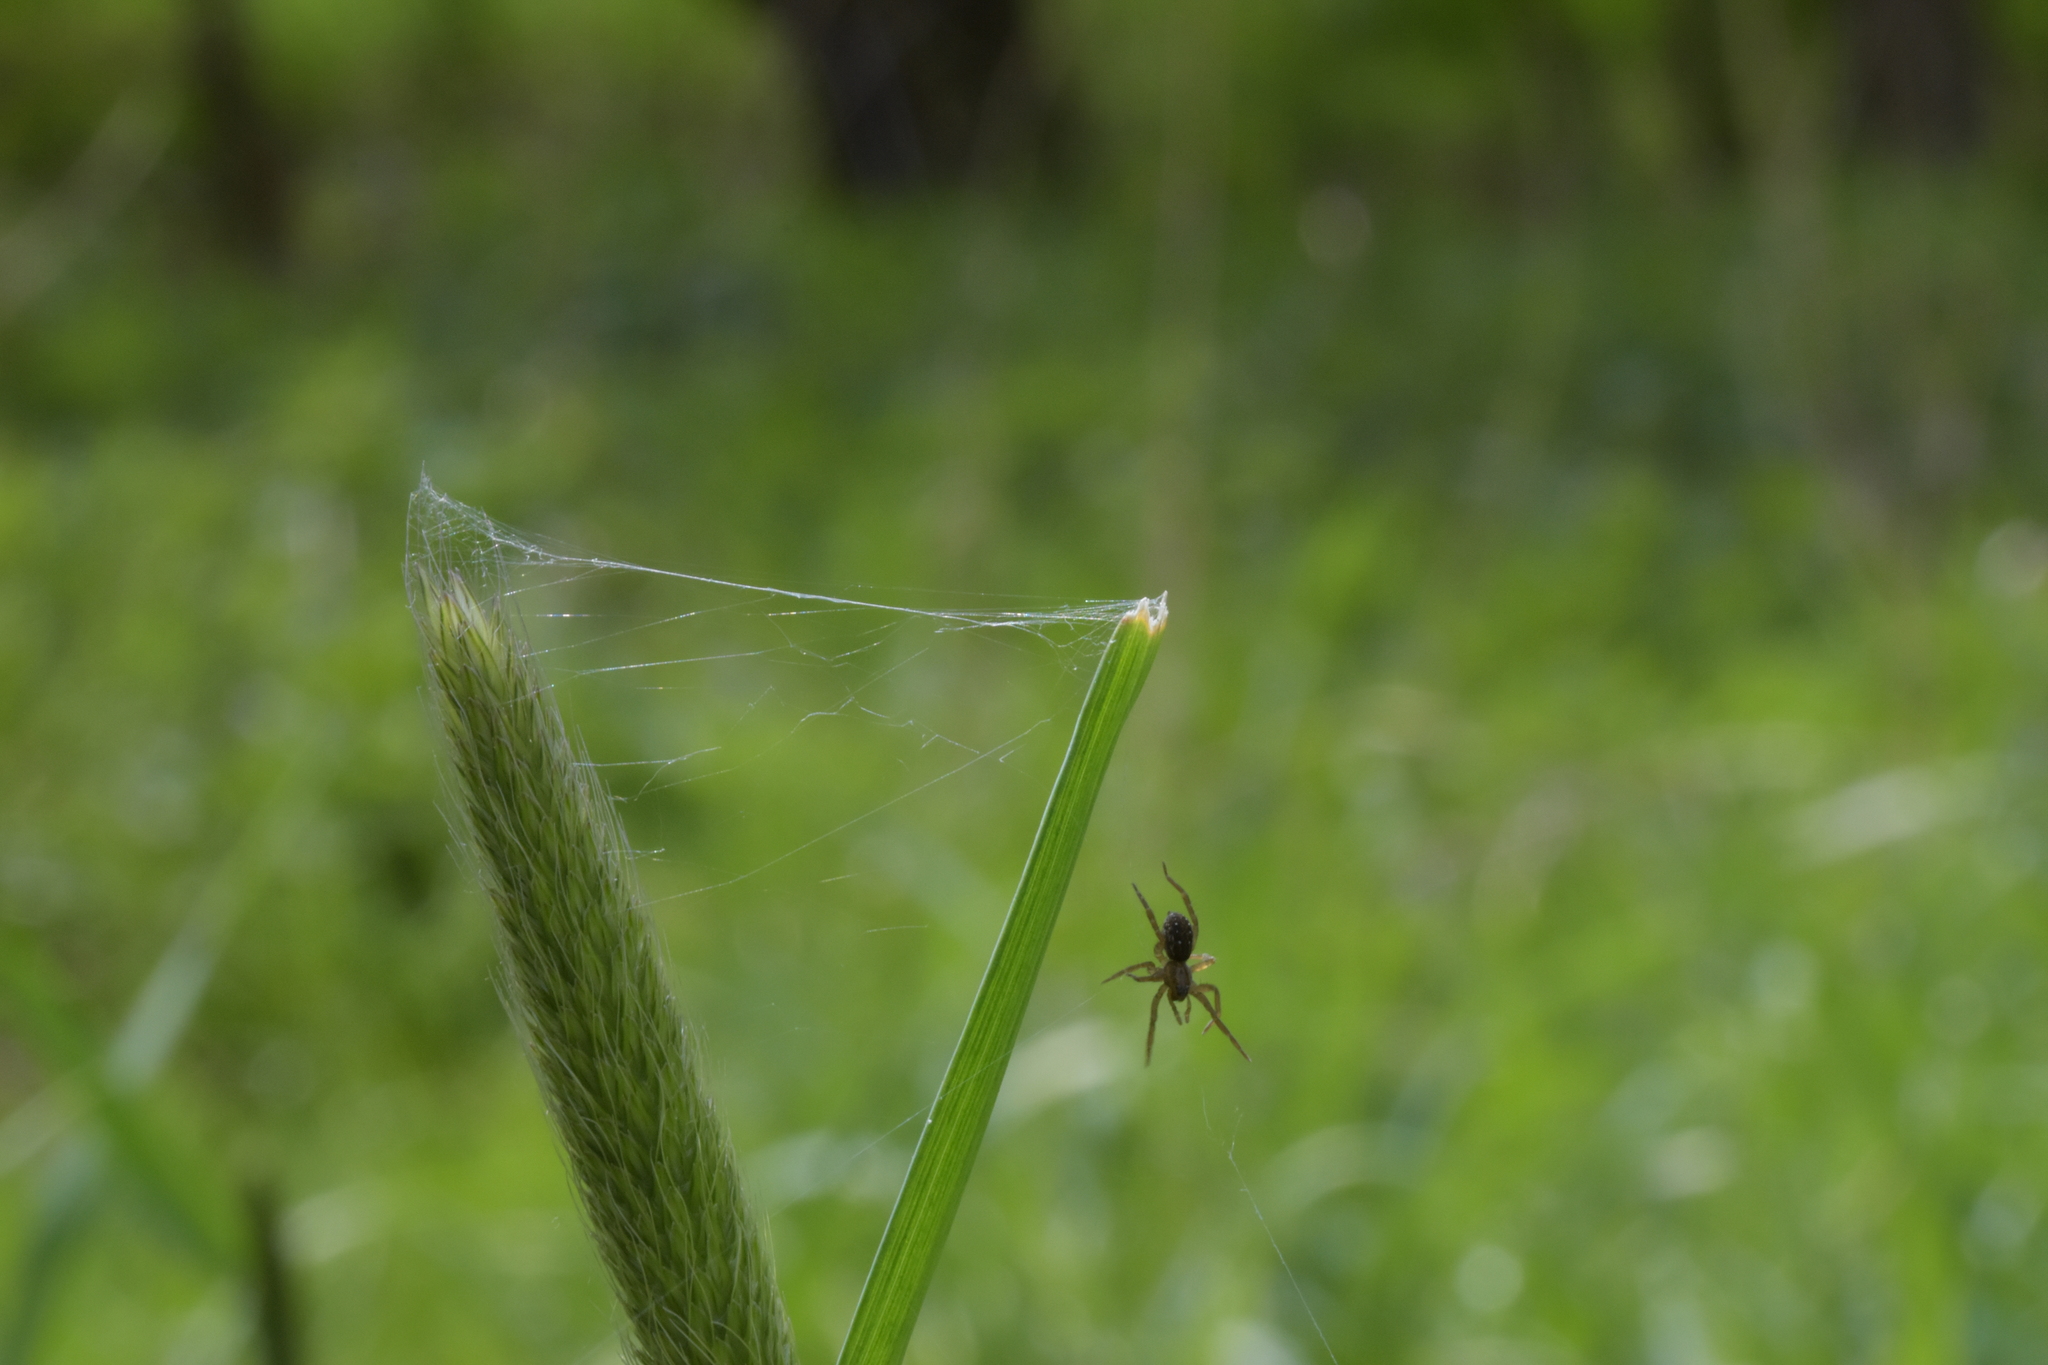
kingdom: Animalia
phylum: Arthropoda
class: Arachnida
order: Araneae
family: Lycosidae
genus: Pirata
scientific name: Pirata piraticus
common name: Pirate otter spider
